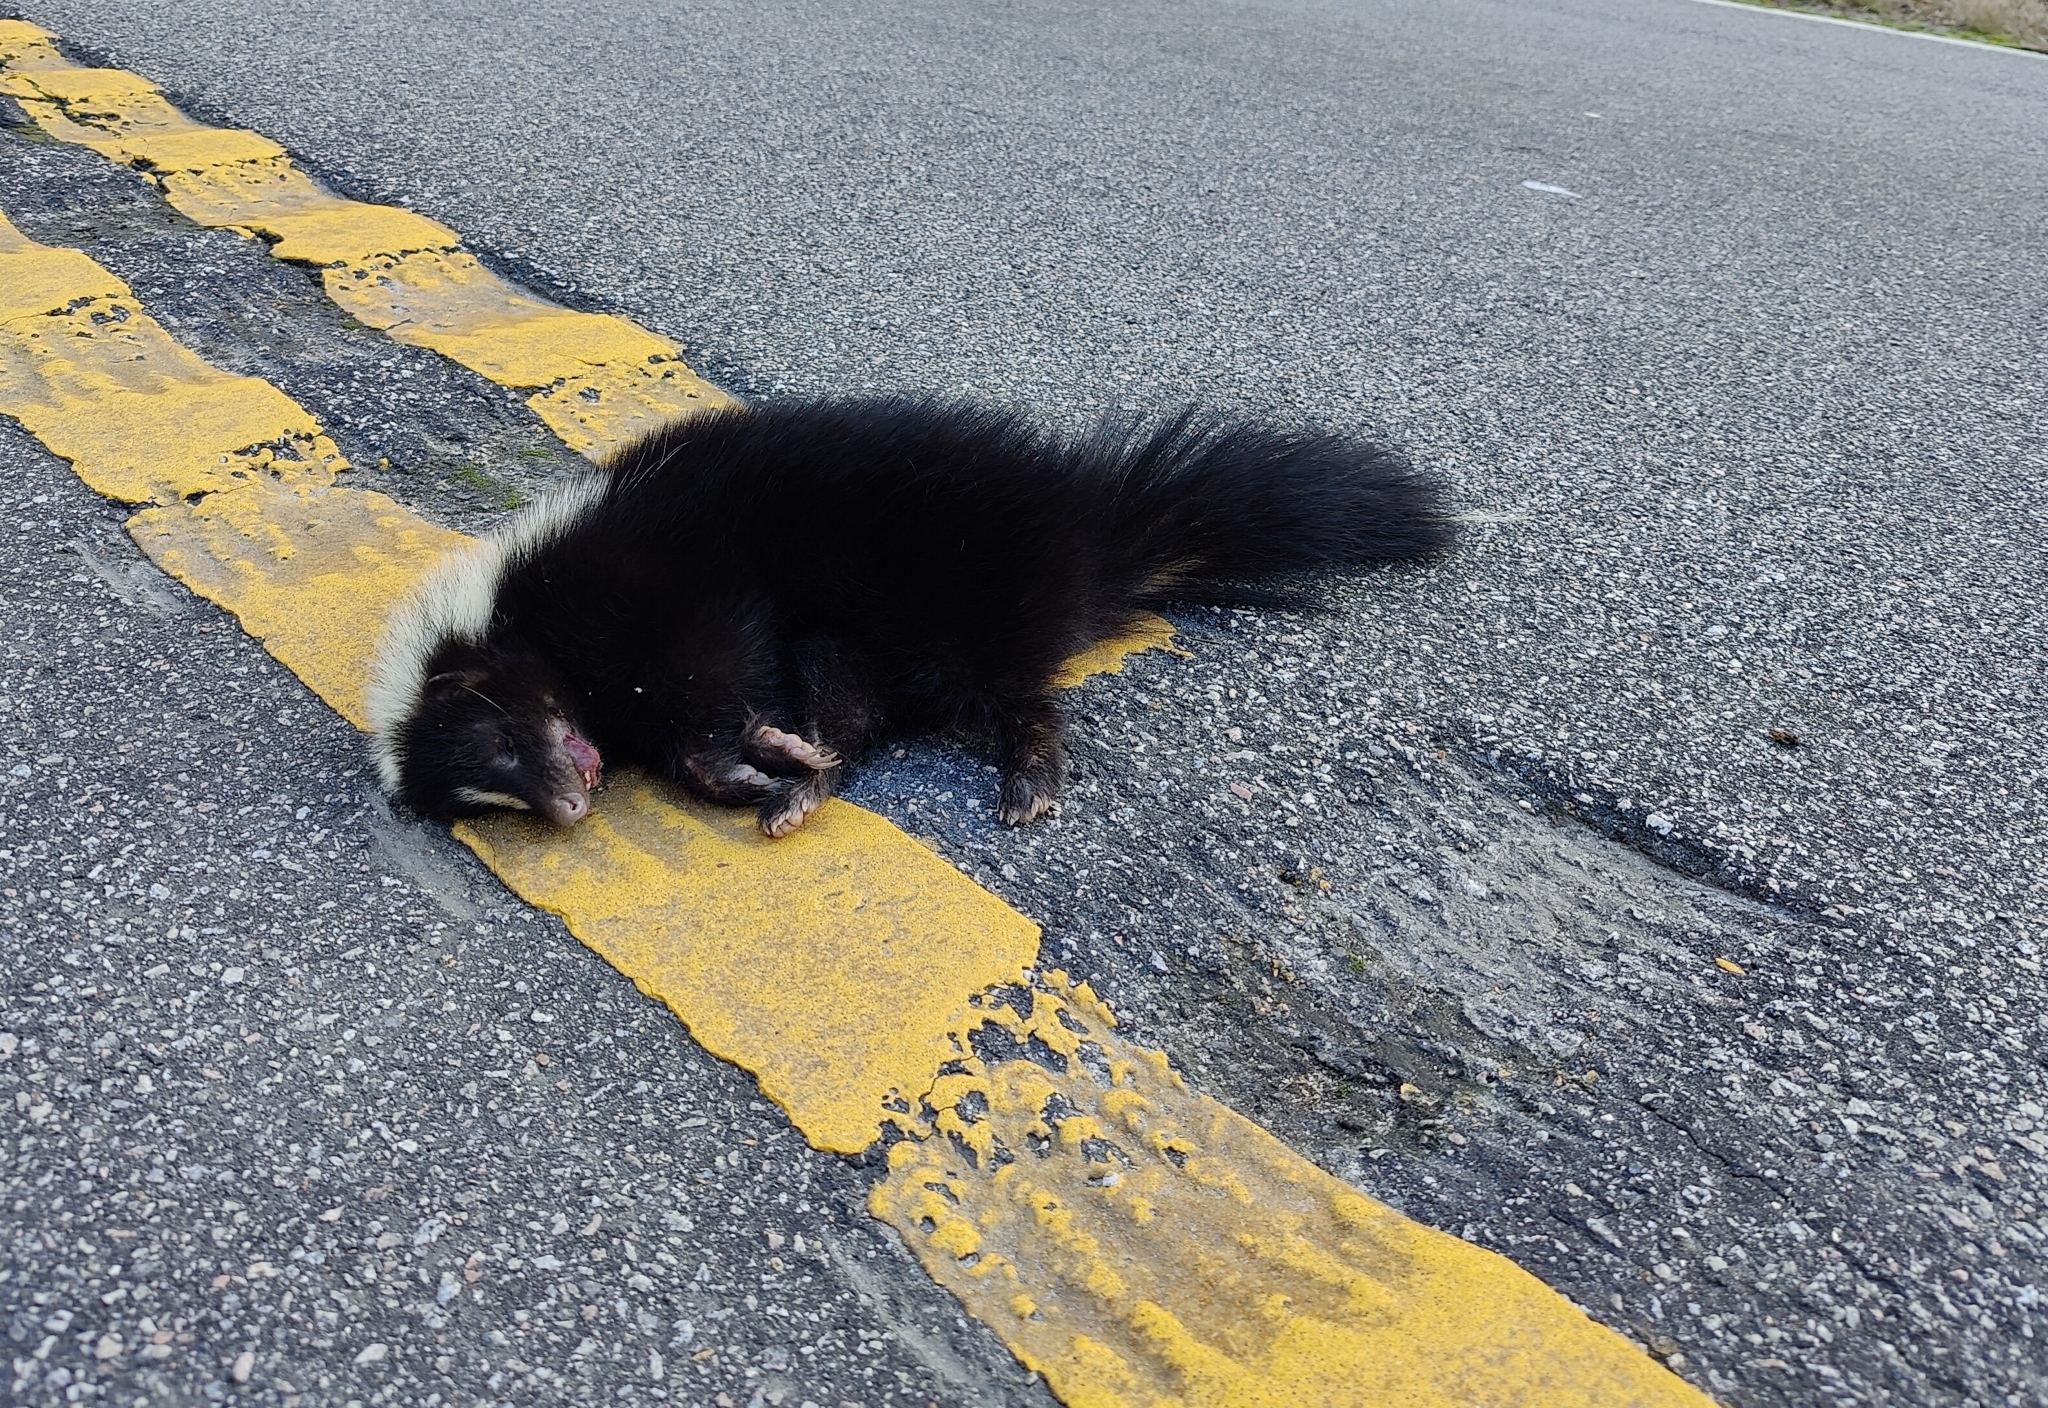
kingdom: Animalia
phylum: Chordata
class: Mammalia
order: Carnivora
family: Mephitidae
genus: Mephitis
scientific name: Mephitis mephitis
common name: Striped skunk
